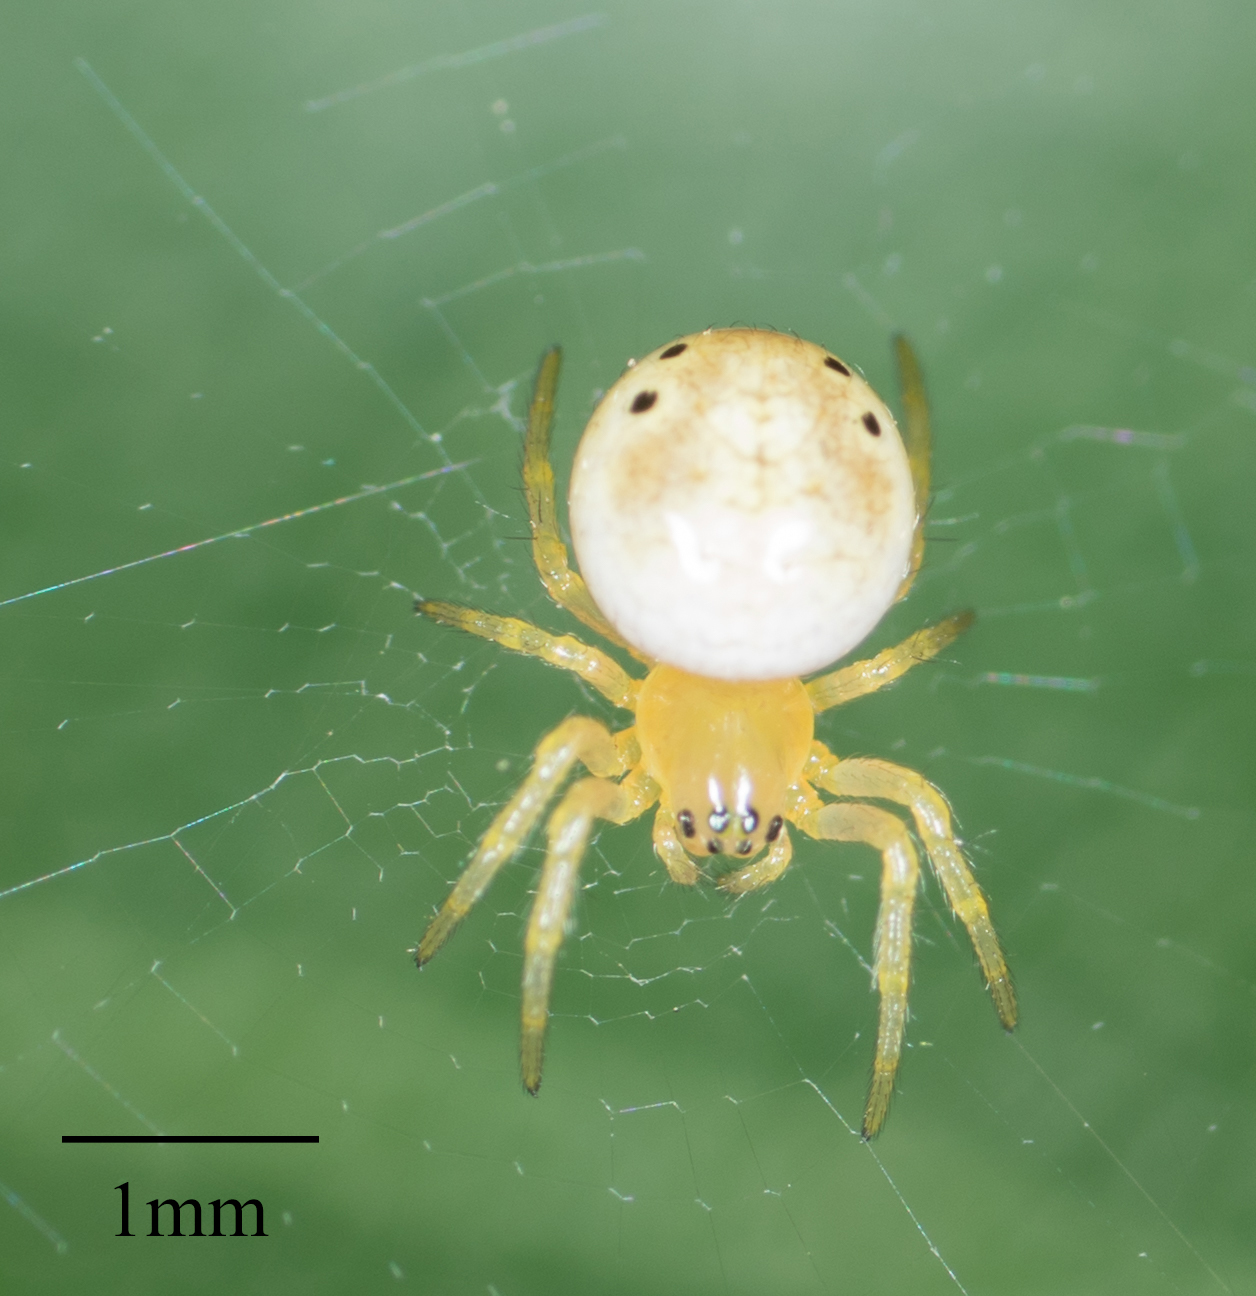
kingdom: Animalia
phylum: Arthropoda
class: Arachnida
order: Araneae
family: Araneidae
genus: Araniella
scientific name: Araniella displicata
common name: Sixspotted orb weaver
